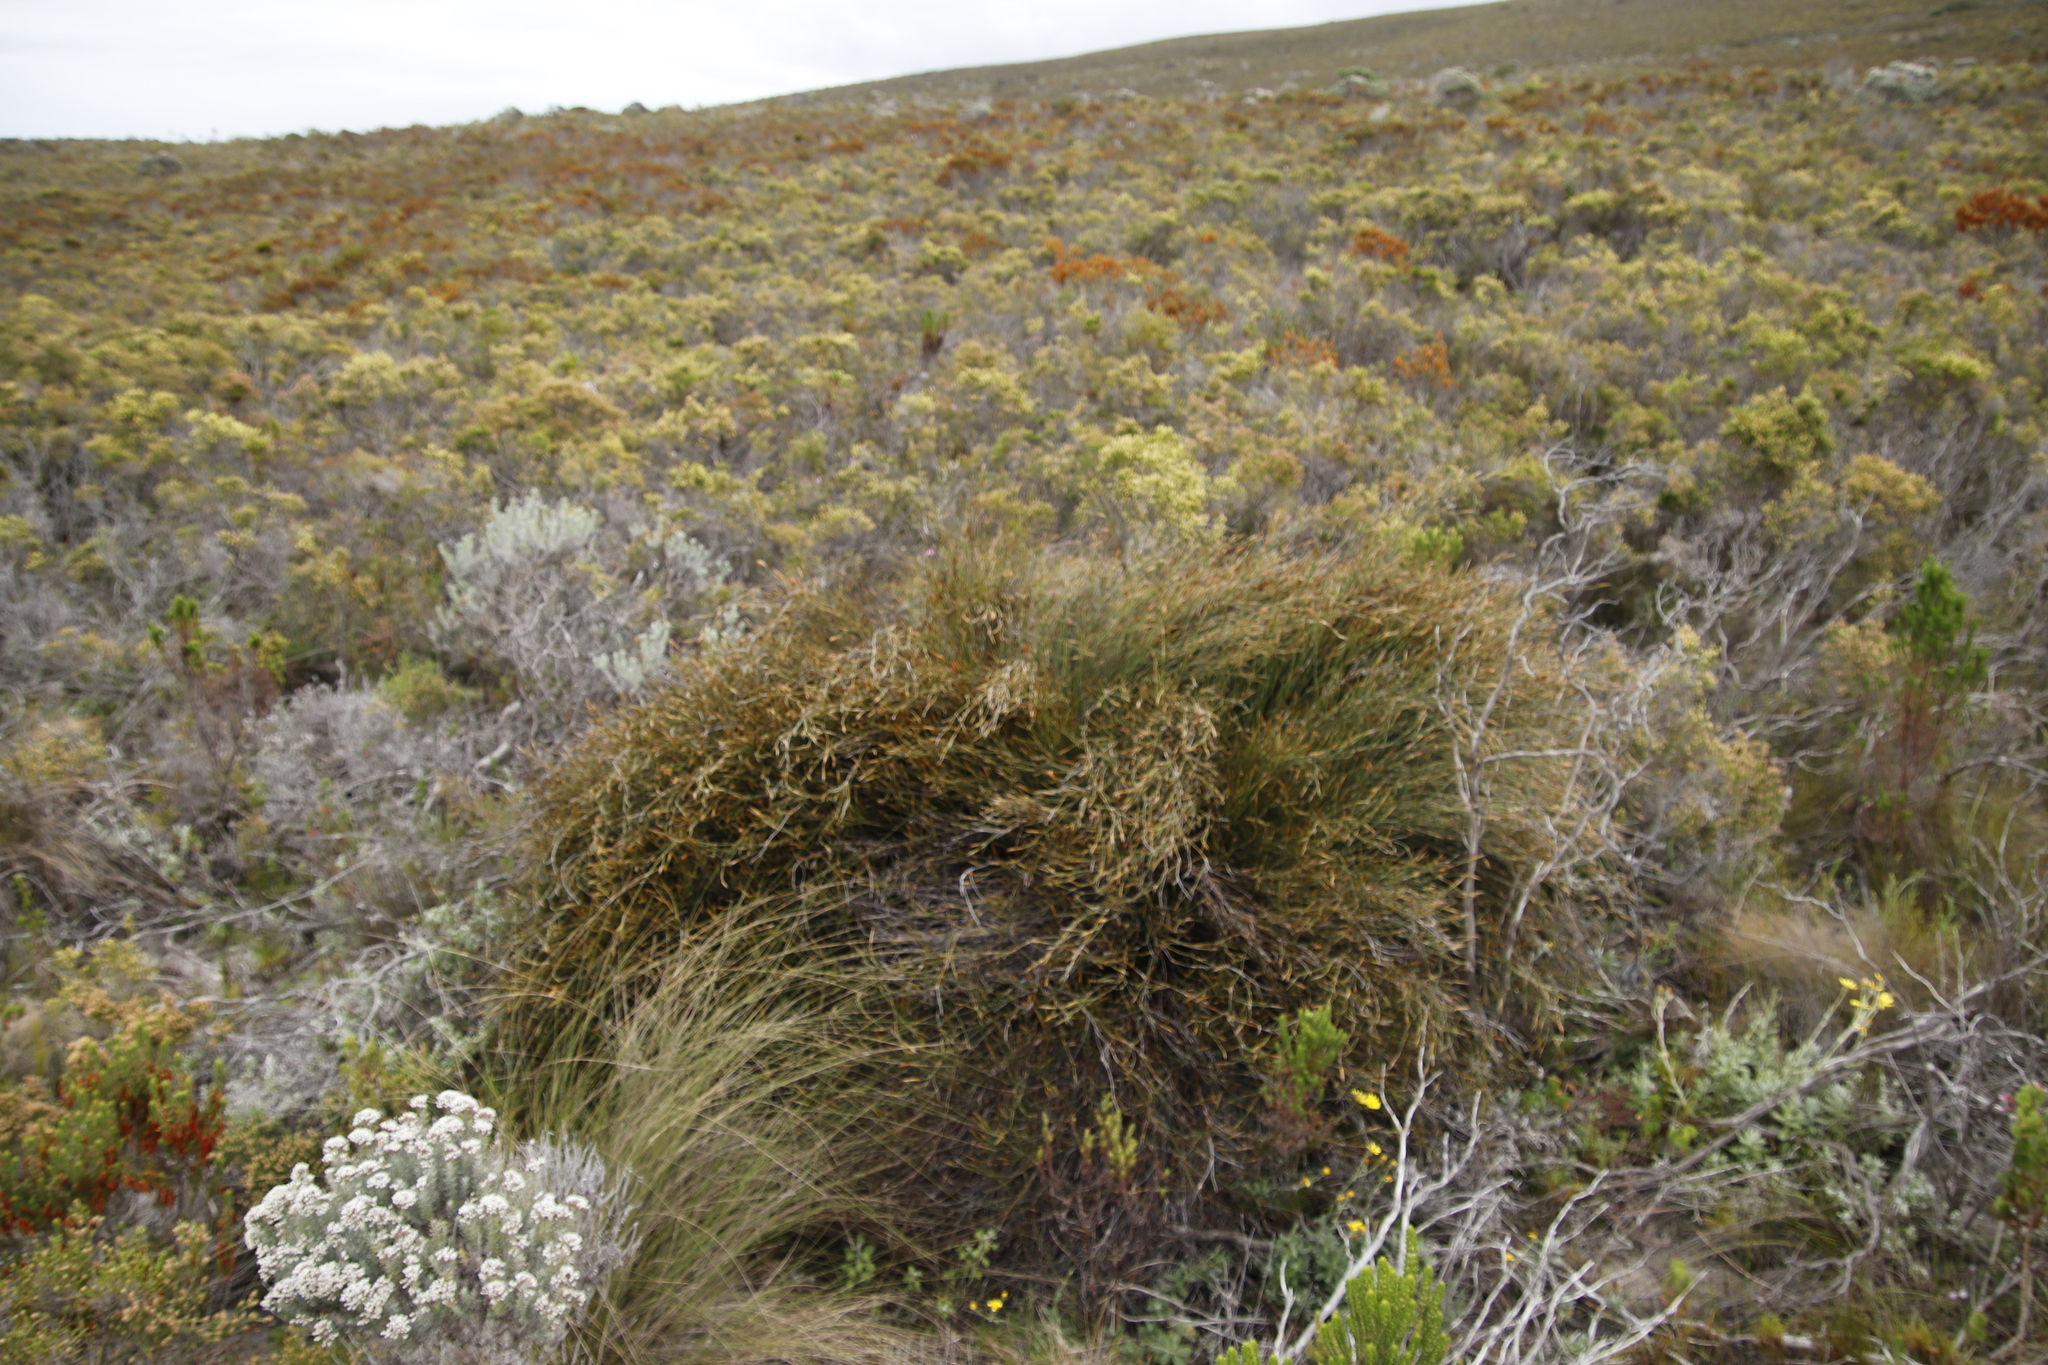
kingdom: Plantae
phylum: Tracheophyta
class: Liliopsida
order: Poales
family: Restionaceae
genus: Willdenowia
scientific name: Willdenowia teres
